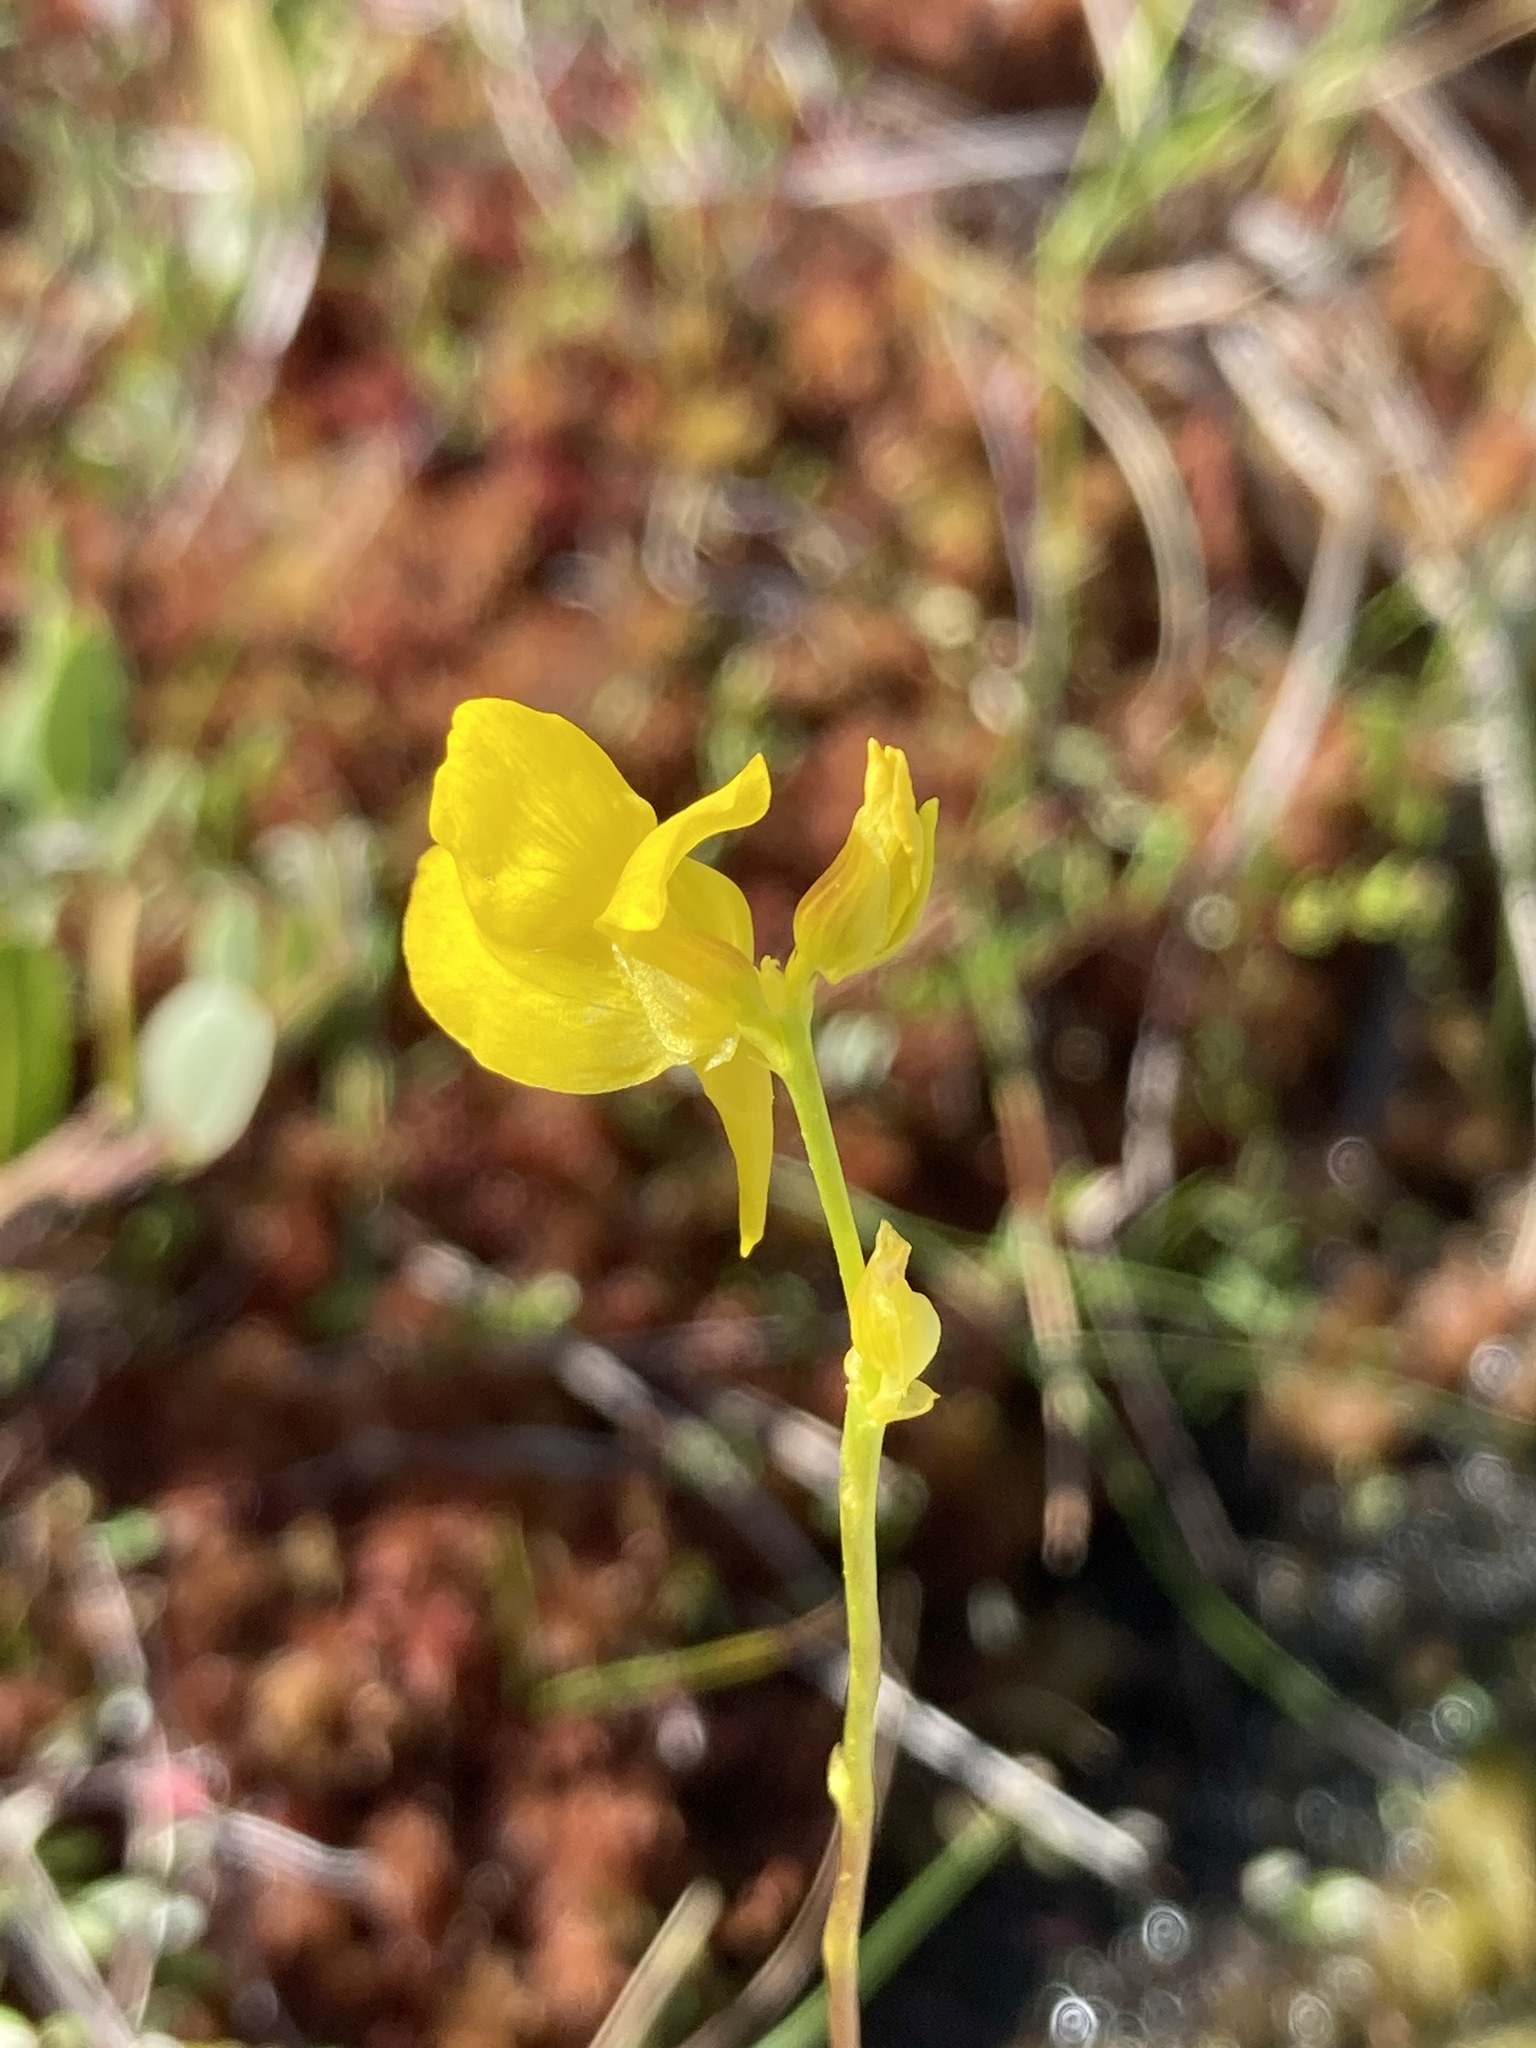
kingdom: Plantae
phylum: Tracheophyta
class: Magnoliopsida
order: Lamiales
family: Lentibulariaceae
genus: Utricularia
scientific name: Utricularia cornuta
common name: Horned bladderwort
